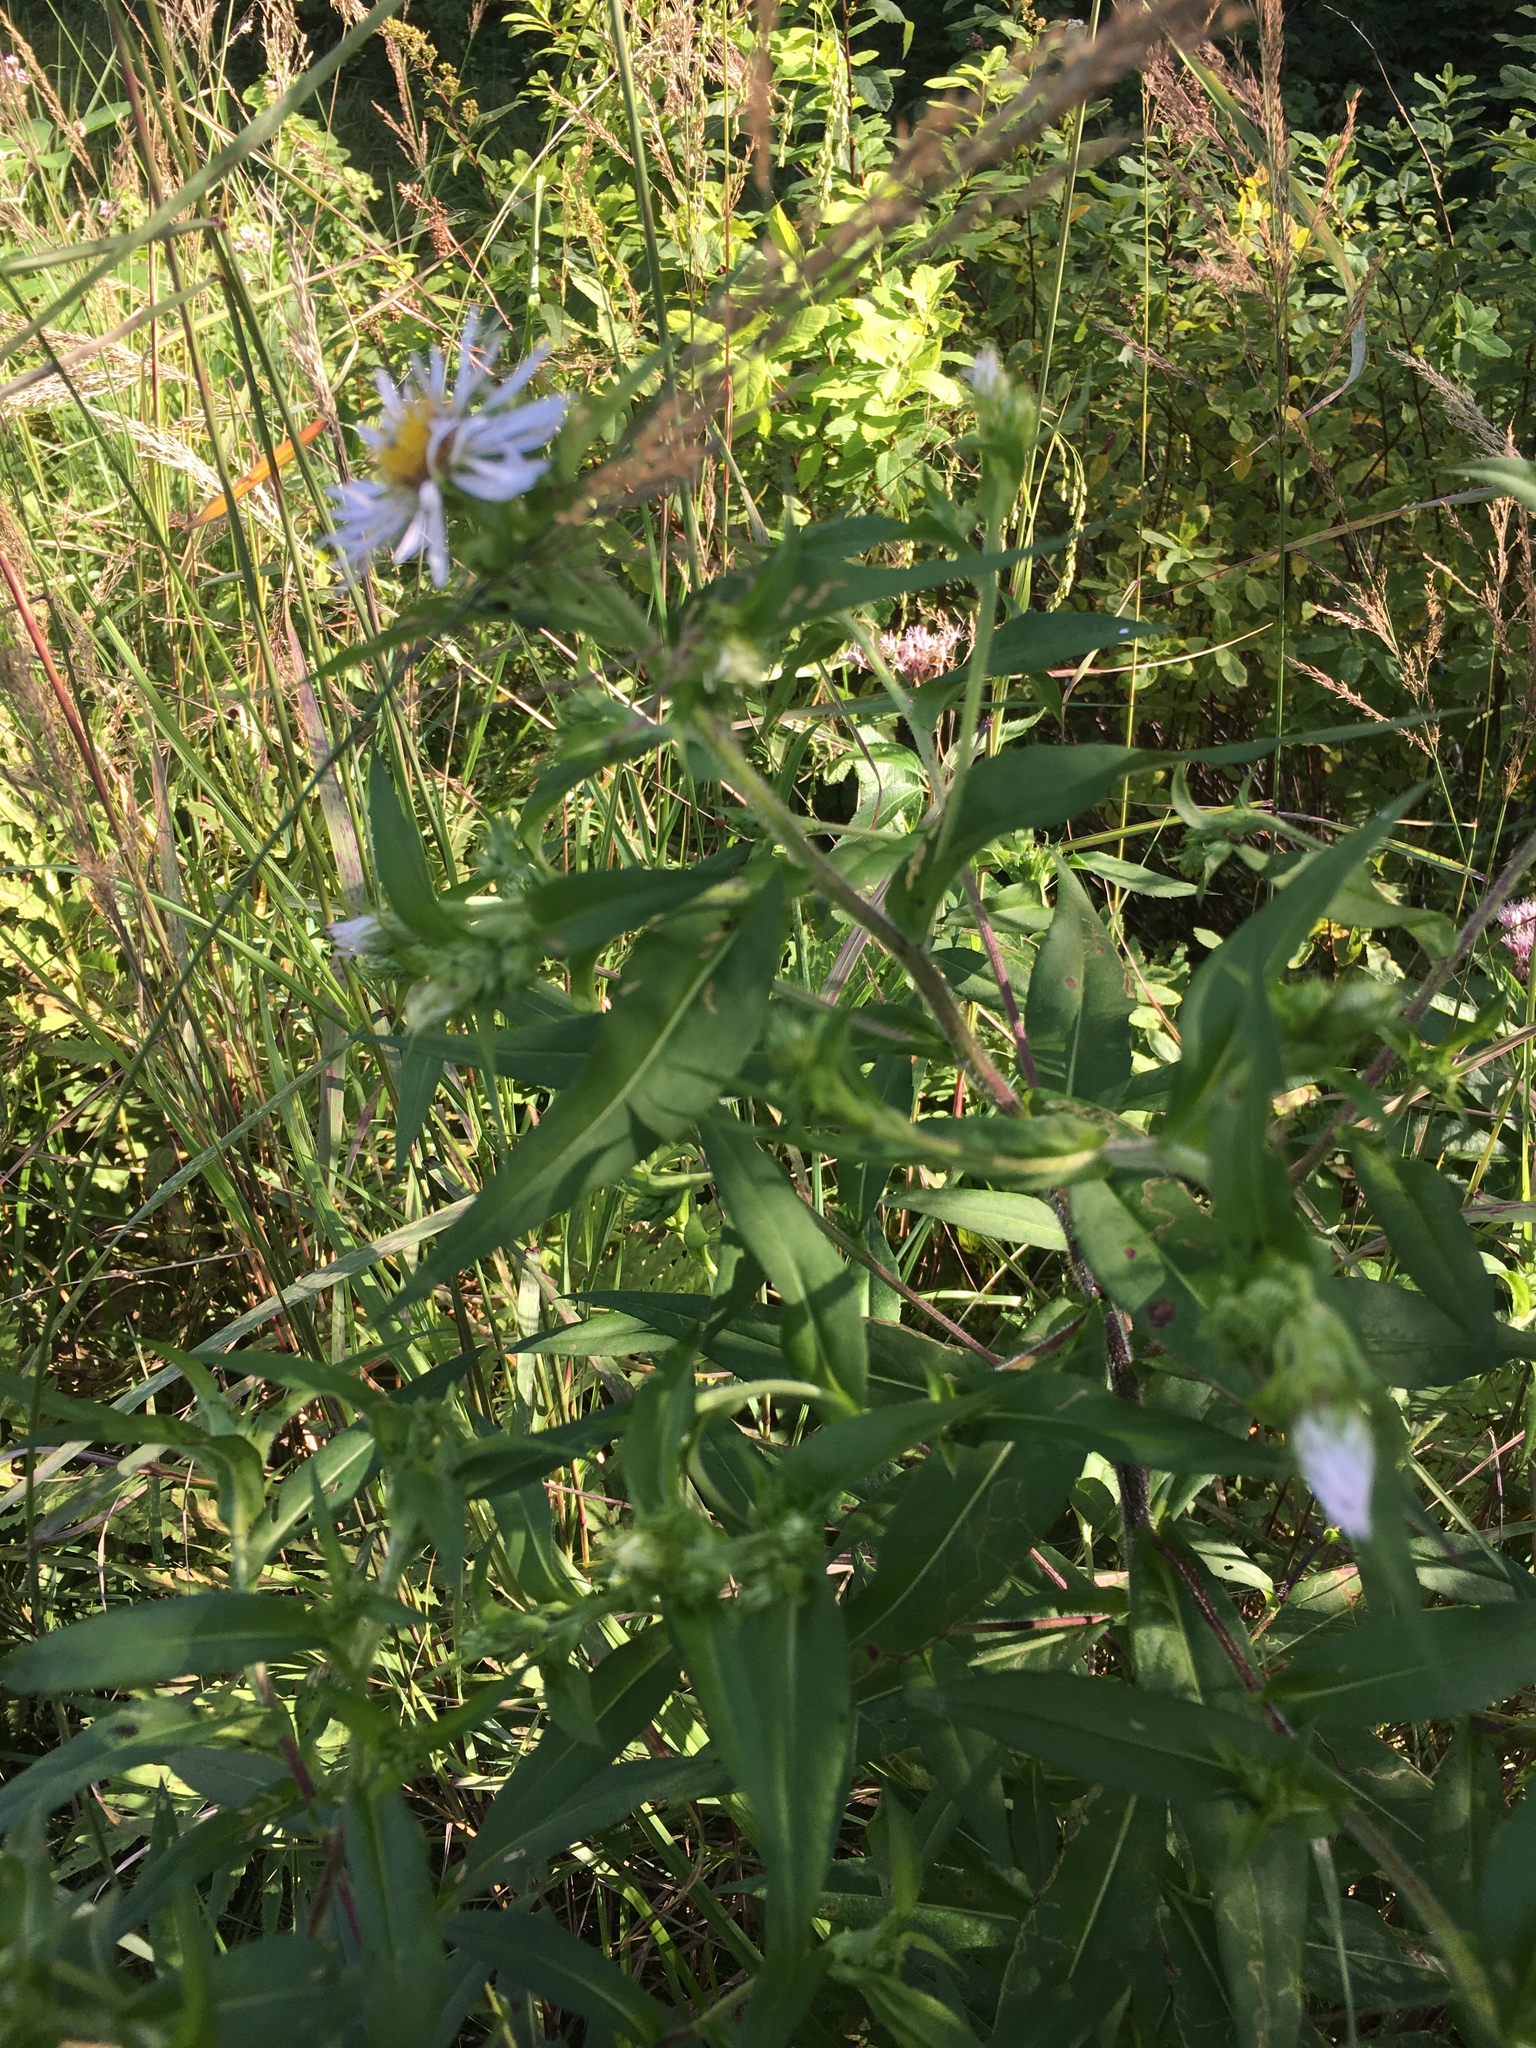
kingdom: Plantae
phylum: Tracheophyta
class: Magnoliopsida
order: Asterales
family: Asteraceae
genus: Symphyotrichum
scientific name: Symphyotrichum puniceum
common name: Bog aster
